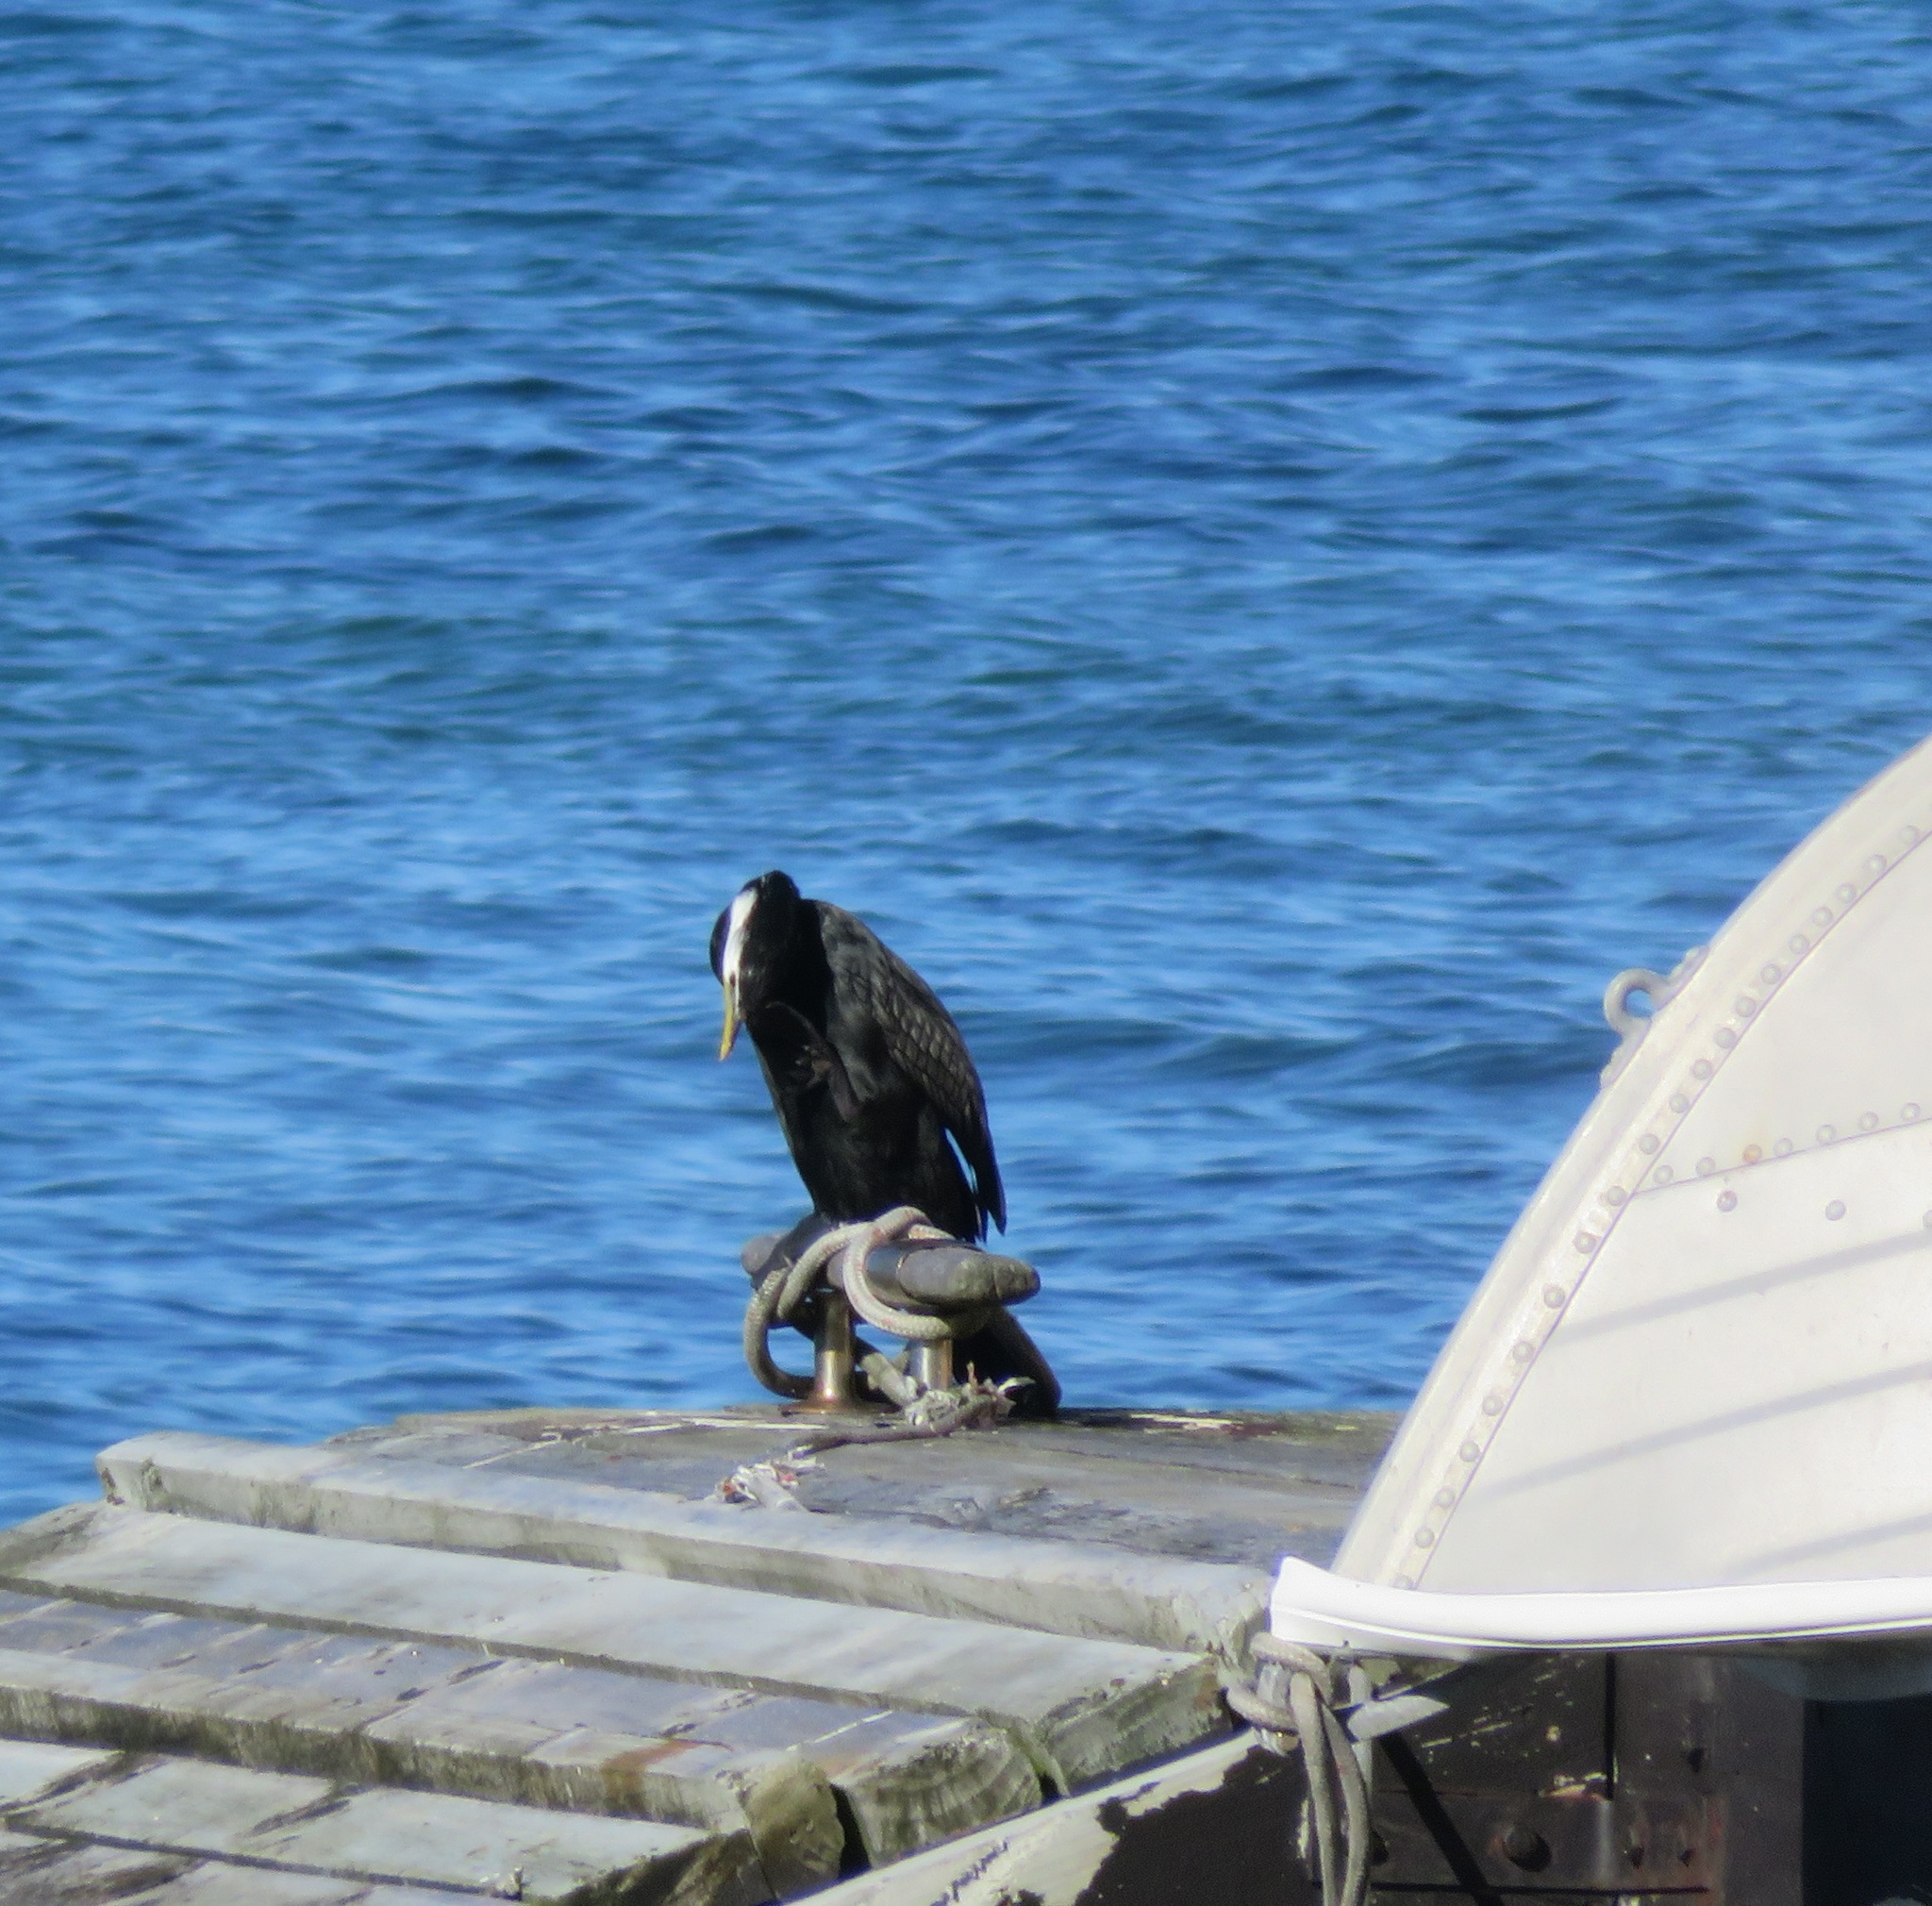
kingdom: Animalia
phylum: Chordata
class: Aves
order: Suliformes
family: Phalacrocoracidae
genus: Microcarbo
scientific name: Microcarbo melanoleucos
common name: Little pied cormorant
